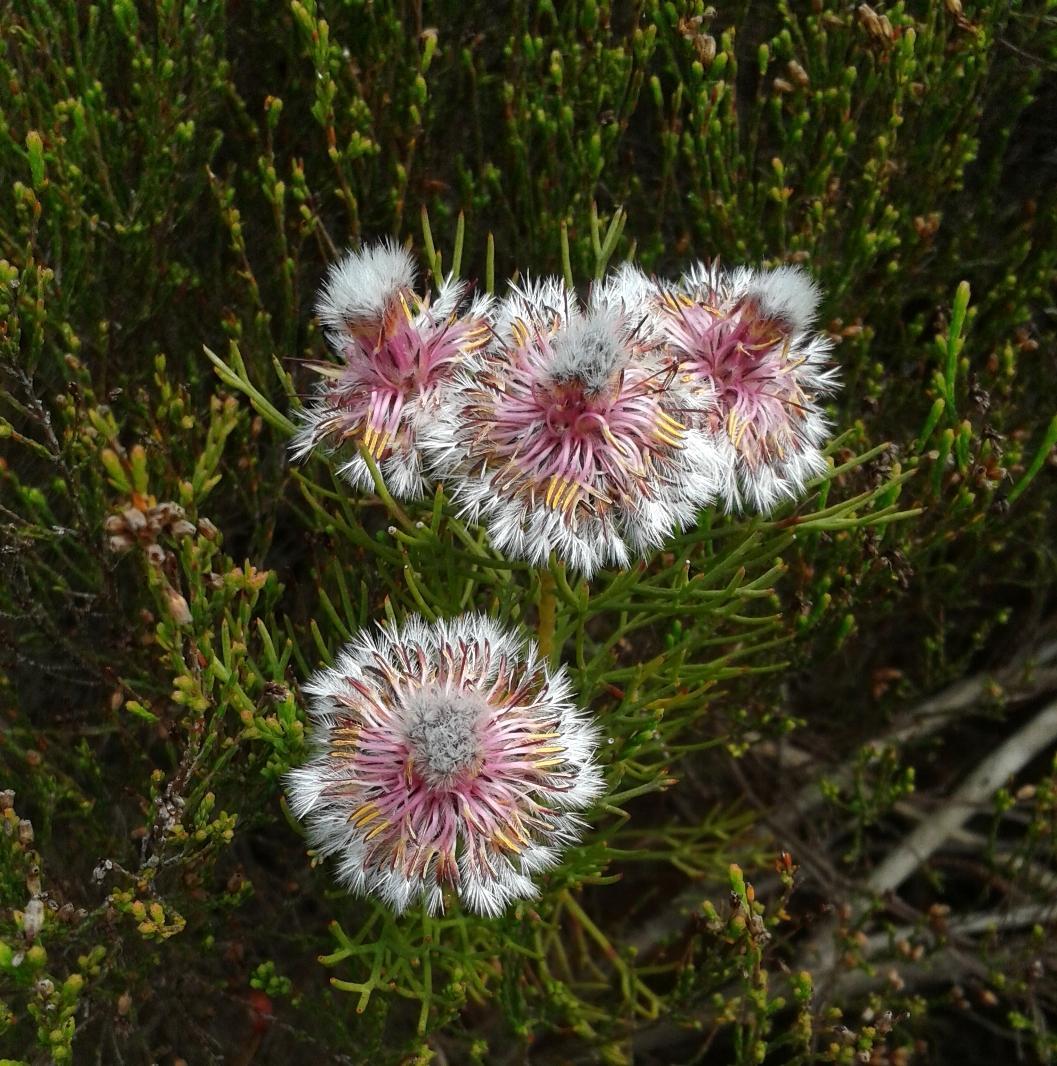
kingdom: Plantae
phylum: Tracheophyta
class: Magnoliopsida
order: Proteales
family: Proteaceae
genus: Serruria
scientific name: Serruria phylicoides
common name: Bearded spiderhead
